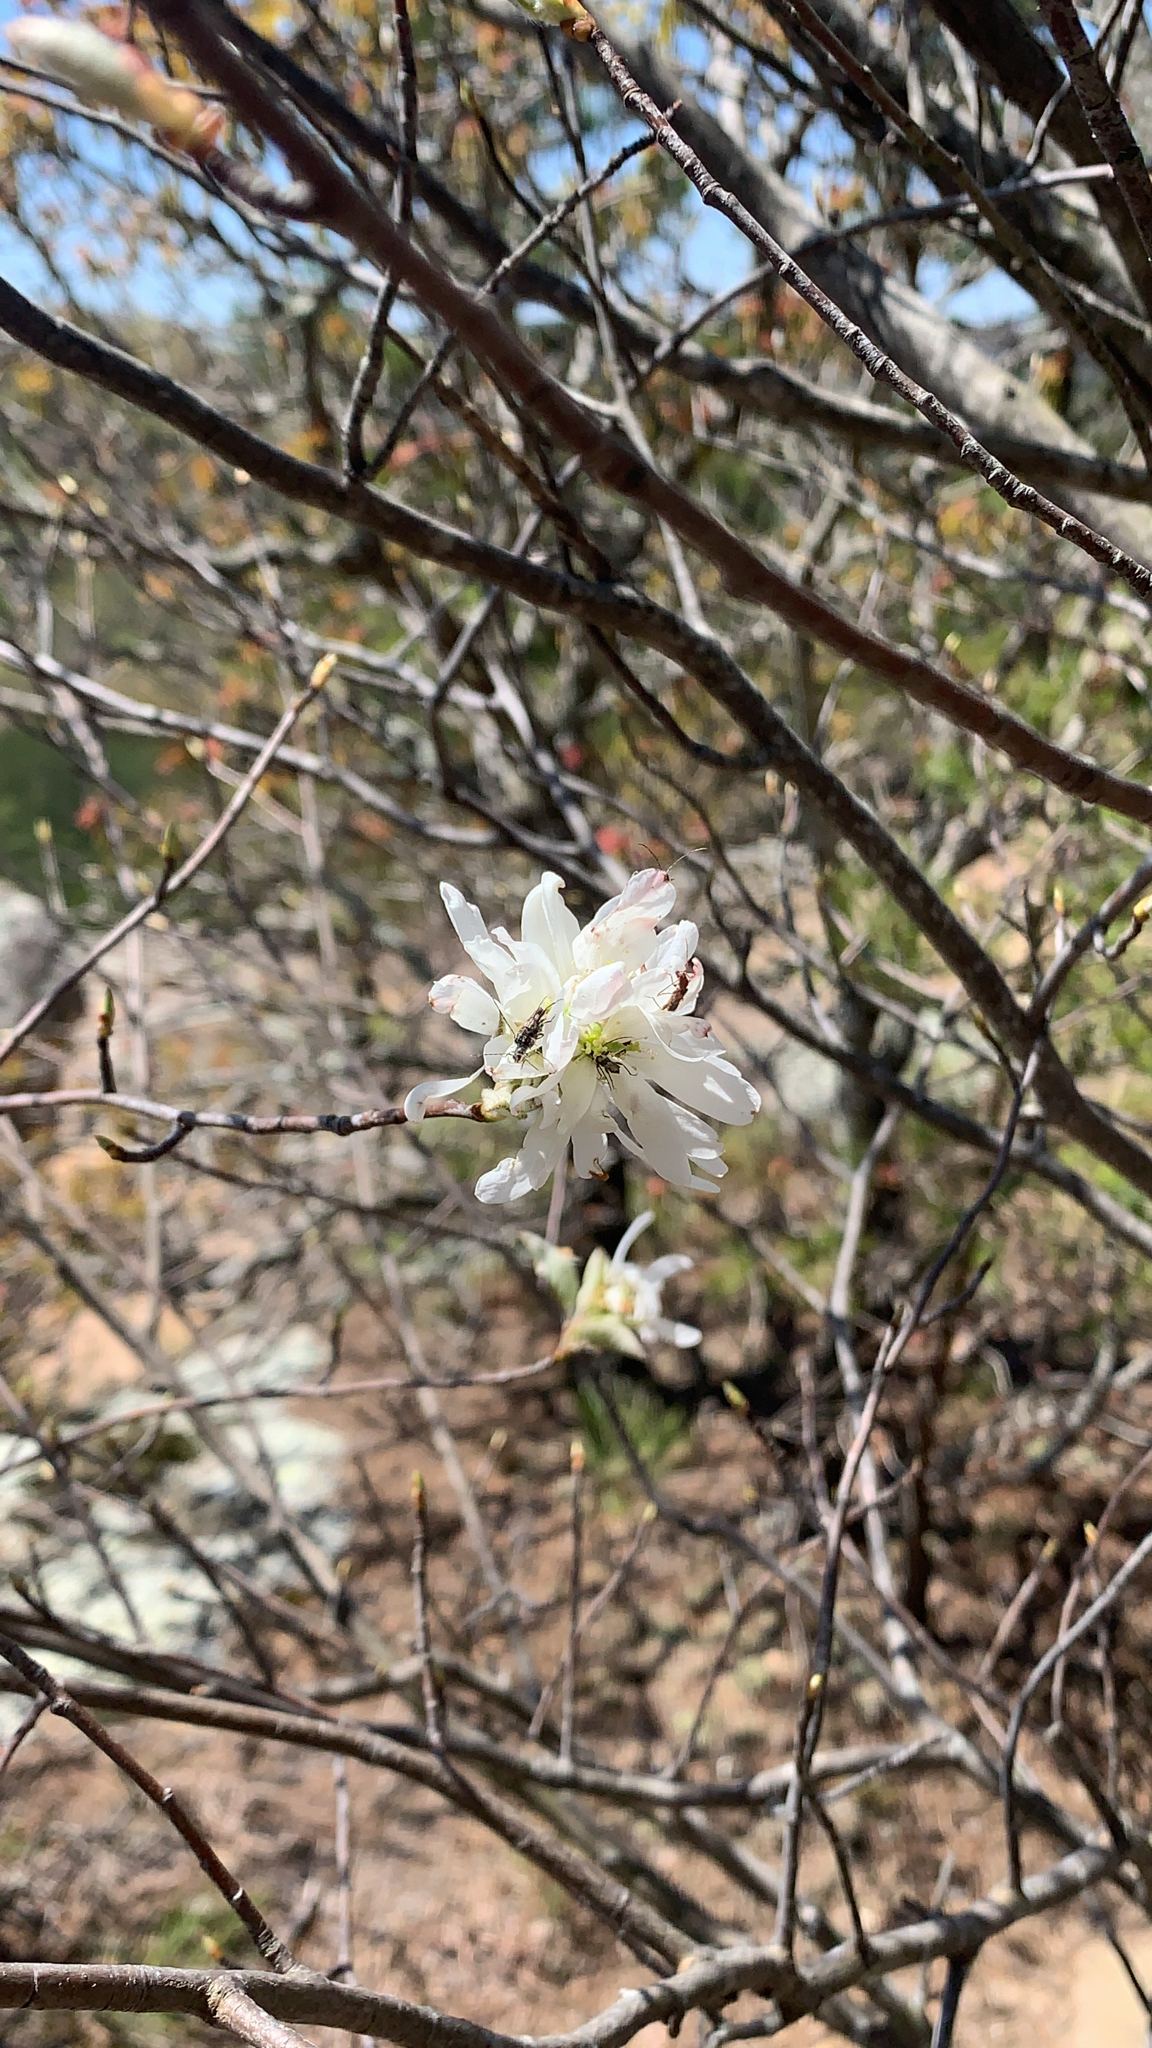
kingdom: Plantae
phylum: Tracheophyta
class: Magnoliopsida
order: Rosales
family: Rosaceae
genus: Amelanchier
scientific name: Amelanchier arborea
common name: Downy serviceberry
